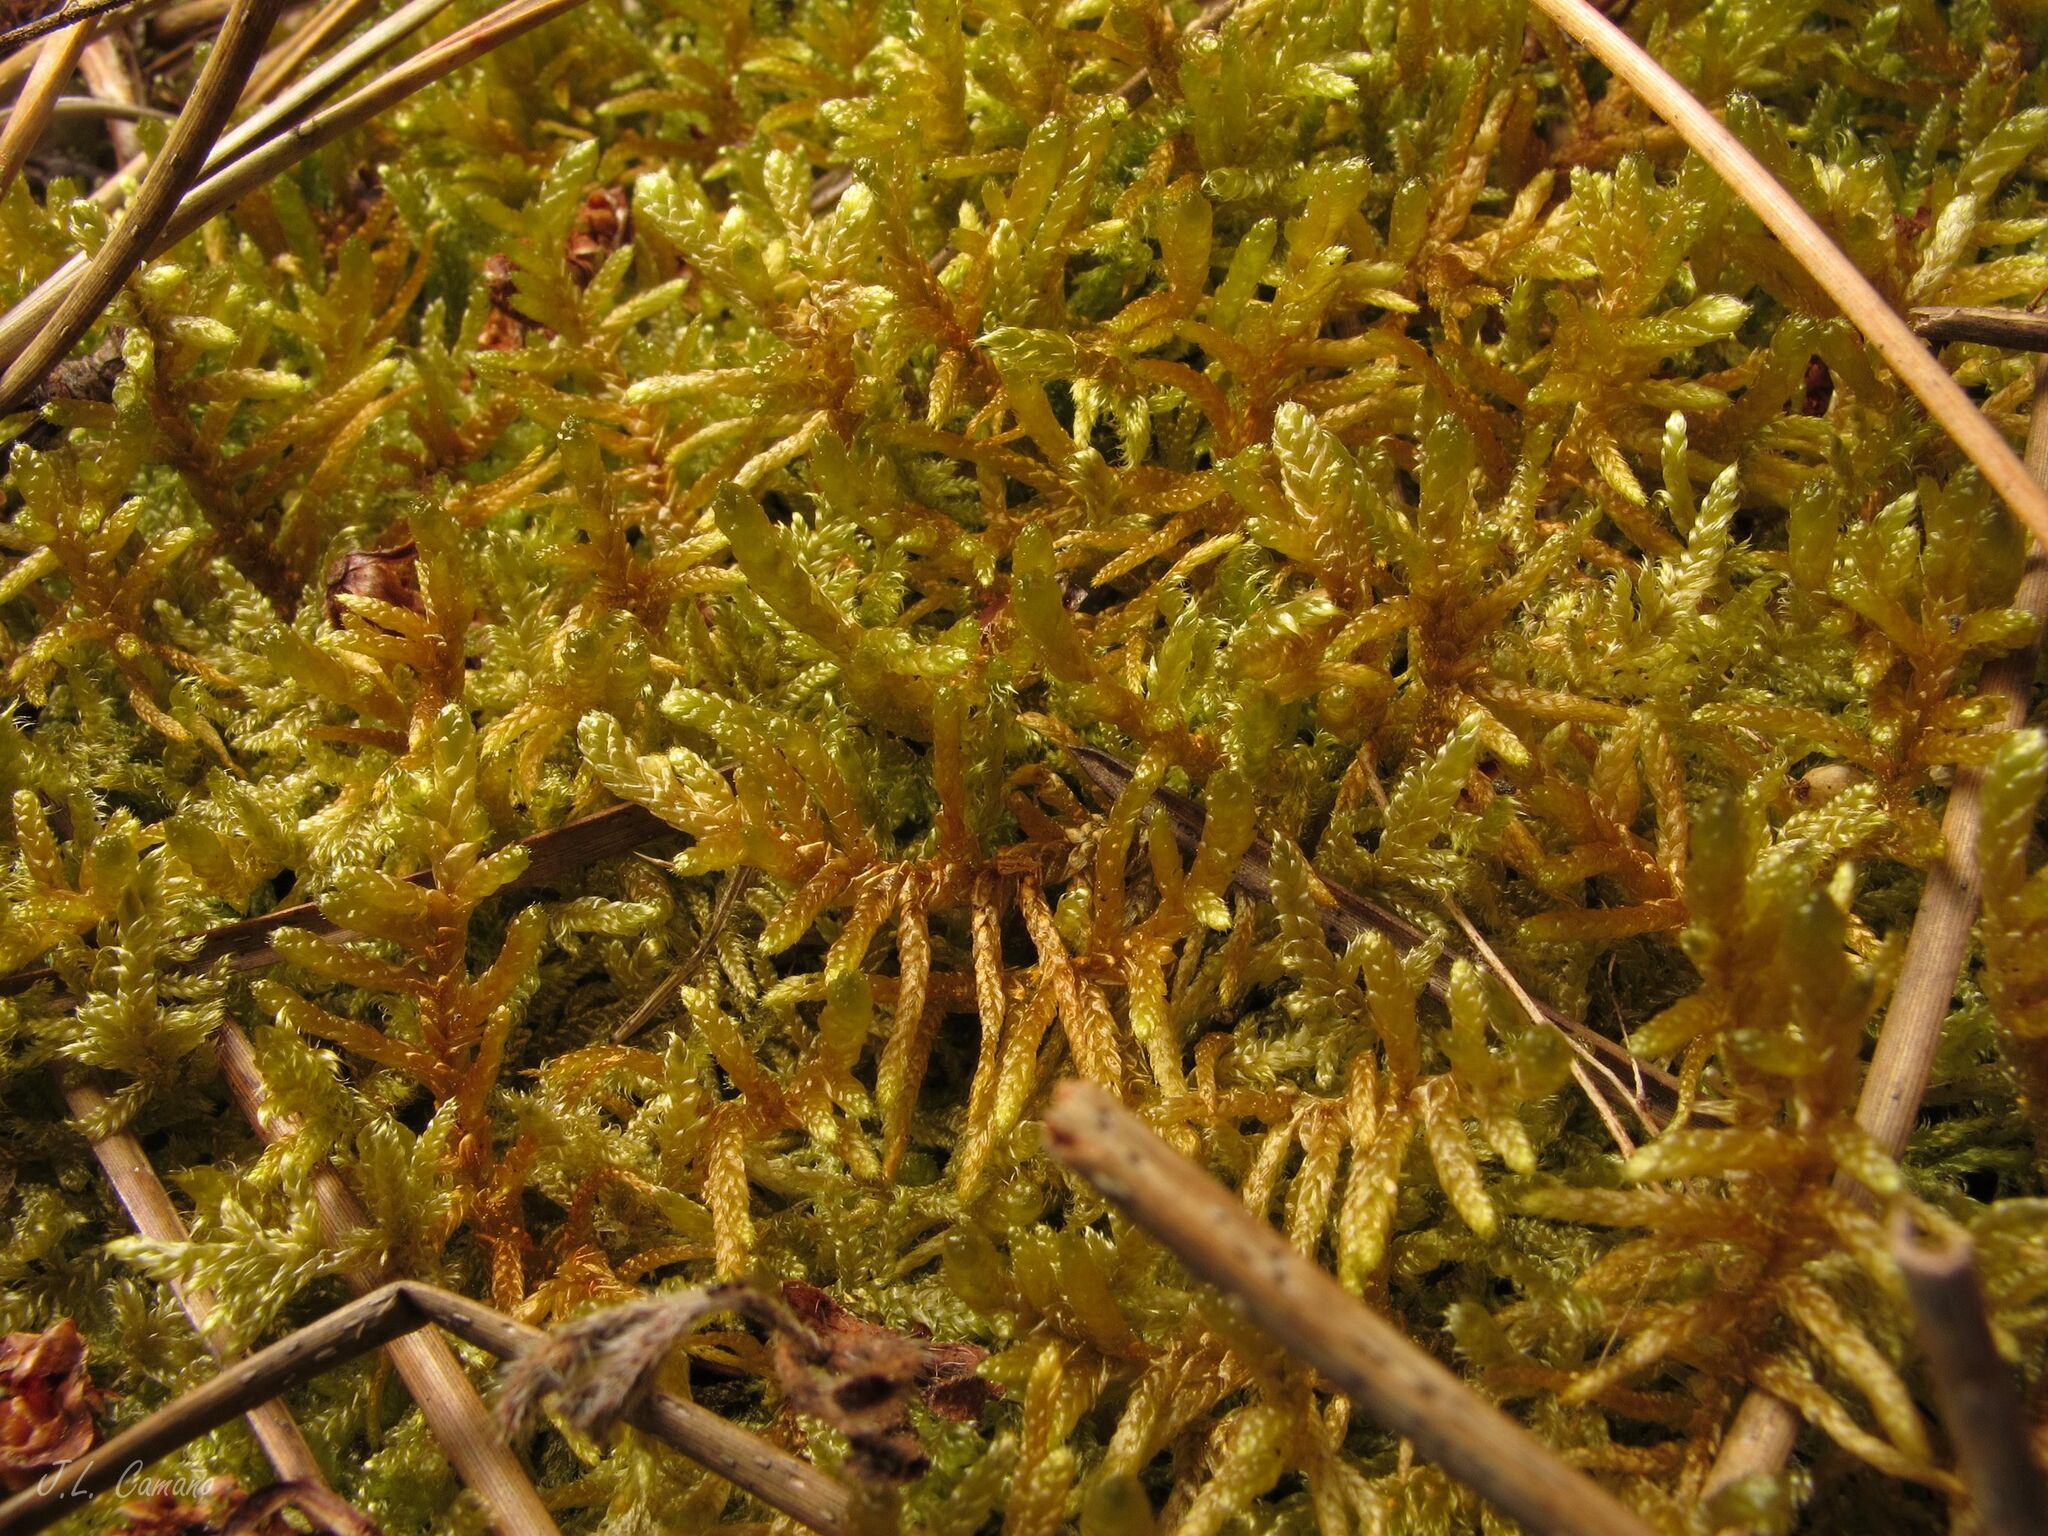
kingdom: Plantae
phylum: Bryophyta
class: Bryopsida
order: Hypnales
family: Hypnaceae
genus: Hypnum
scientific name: Hypnum cupressiforme
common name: Cypress-leaved plait-moss
